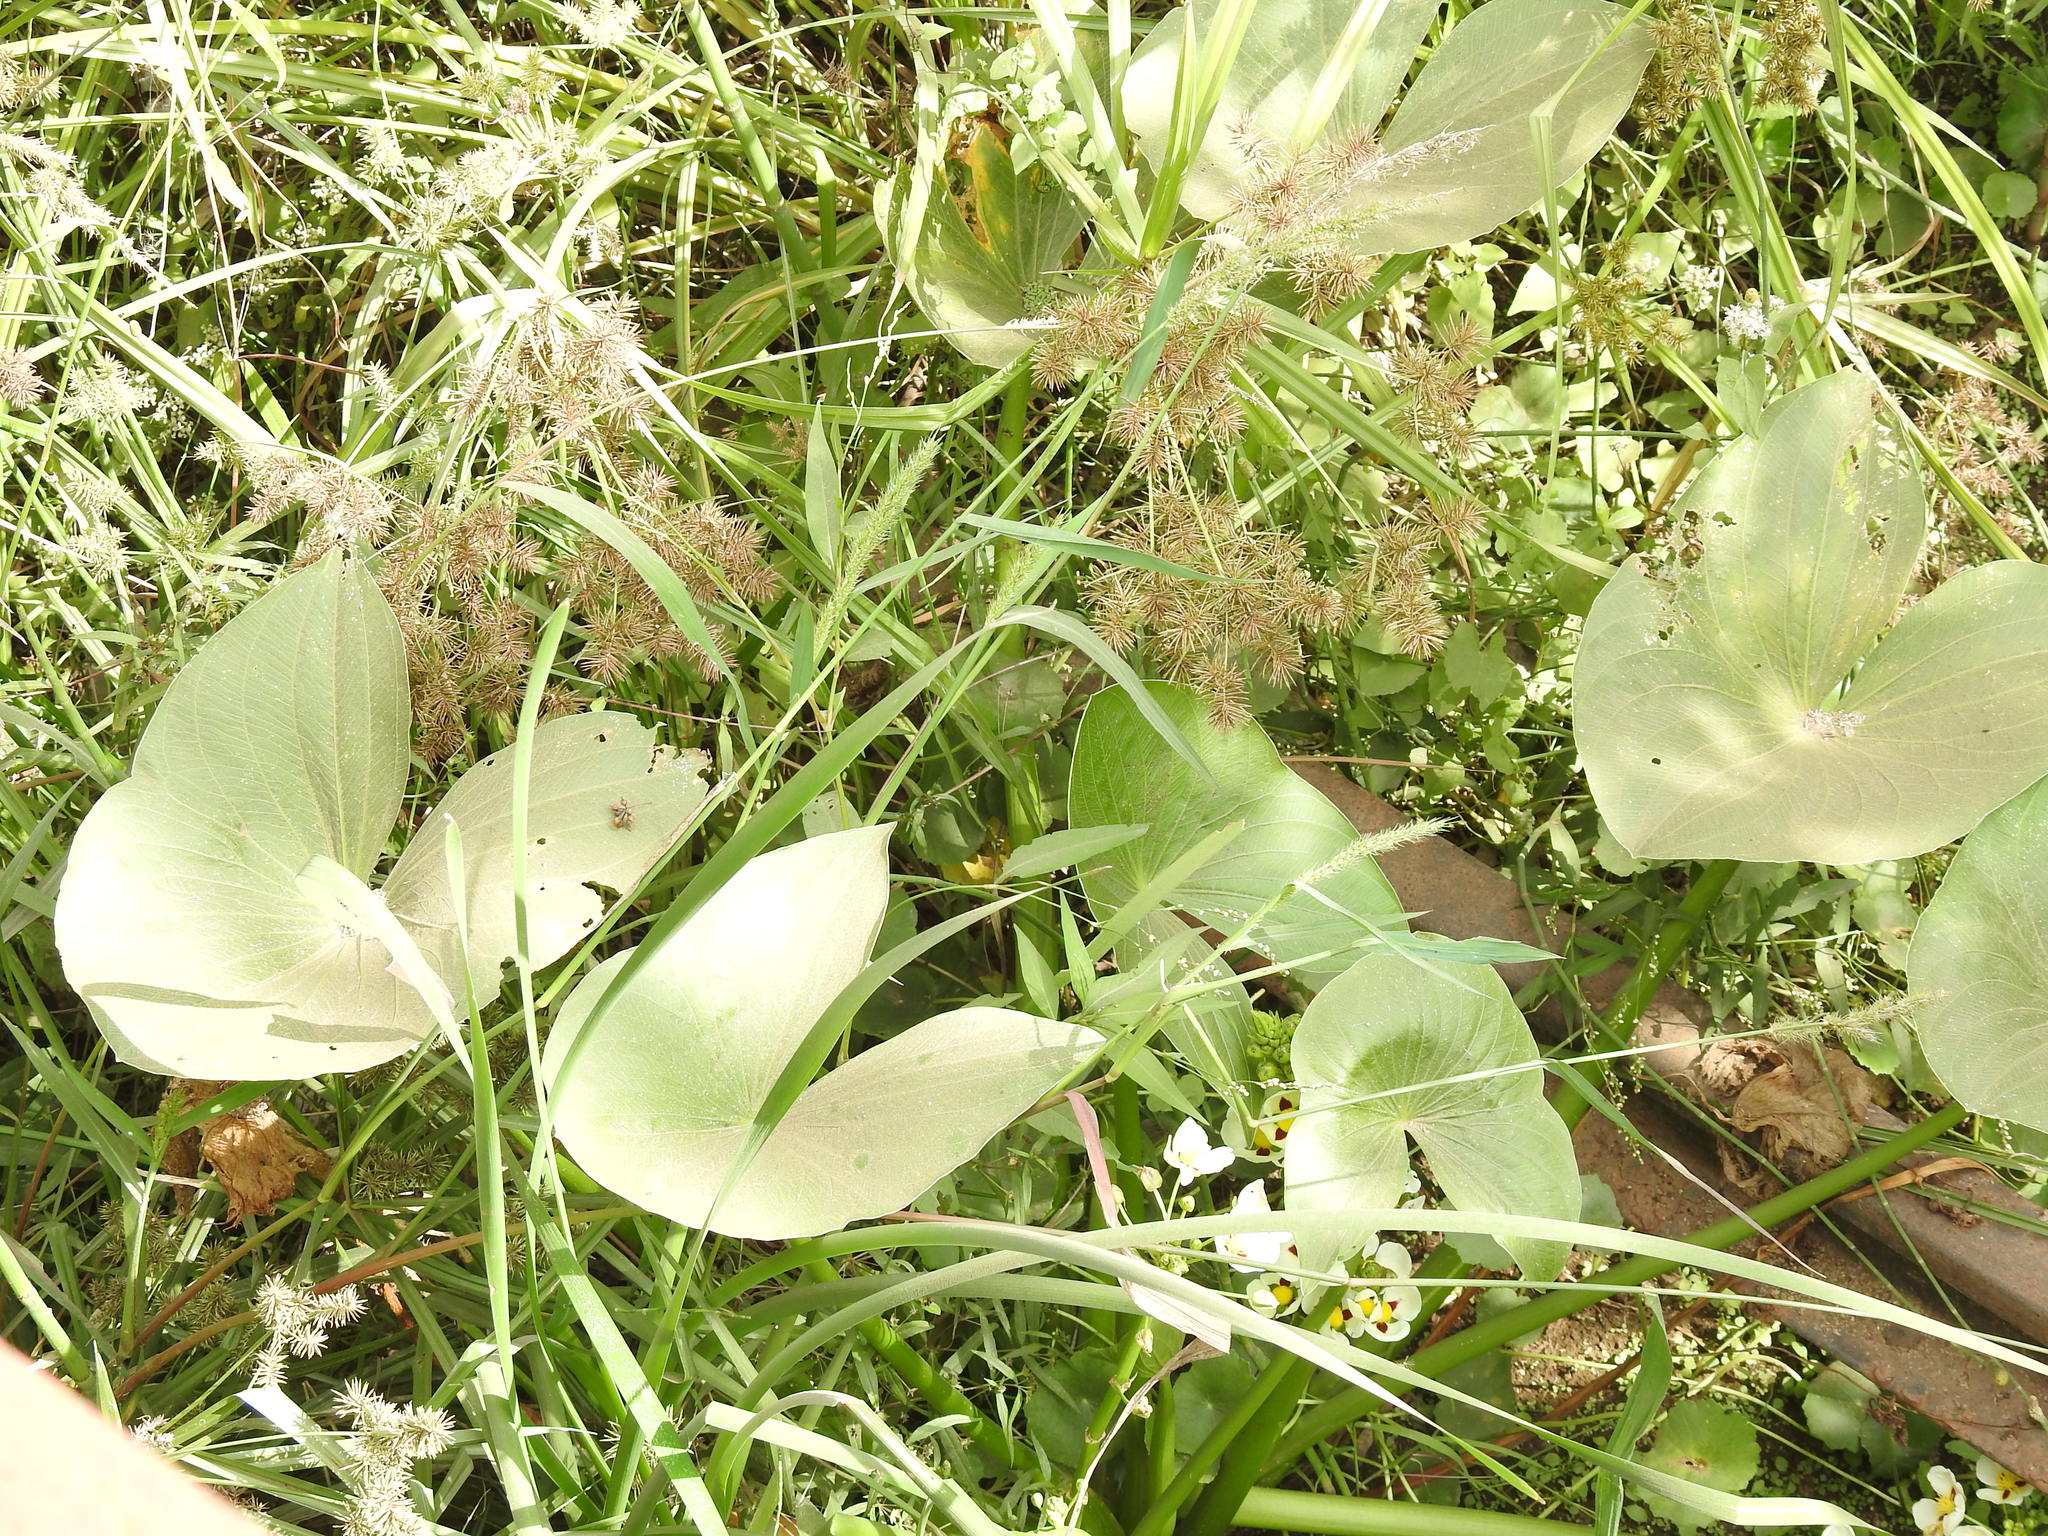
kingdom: Plantae
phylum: Tracheophyta
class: Liliopsida
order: Alismatales
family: Alismataceae
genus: Sagittaria
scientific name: Sagittaria montevidensis
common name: Giant arrowhead
